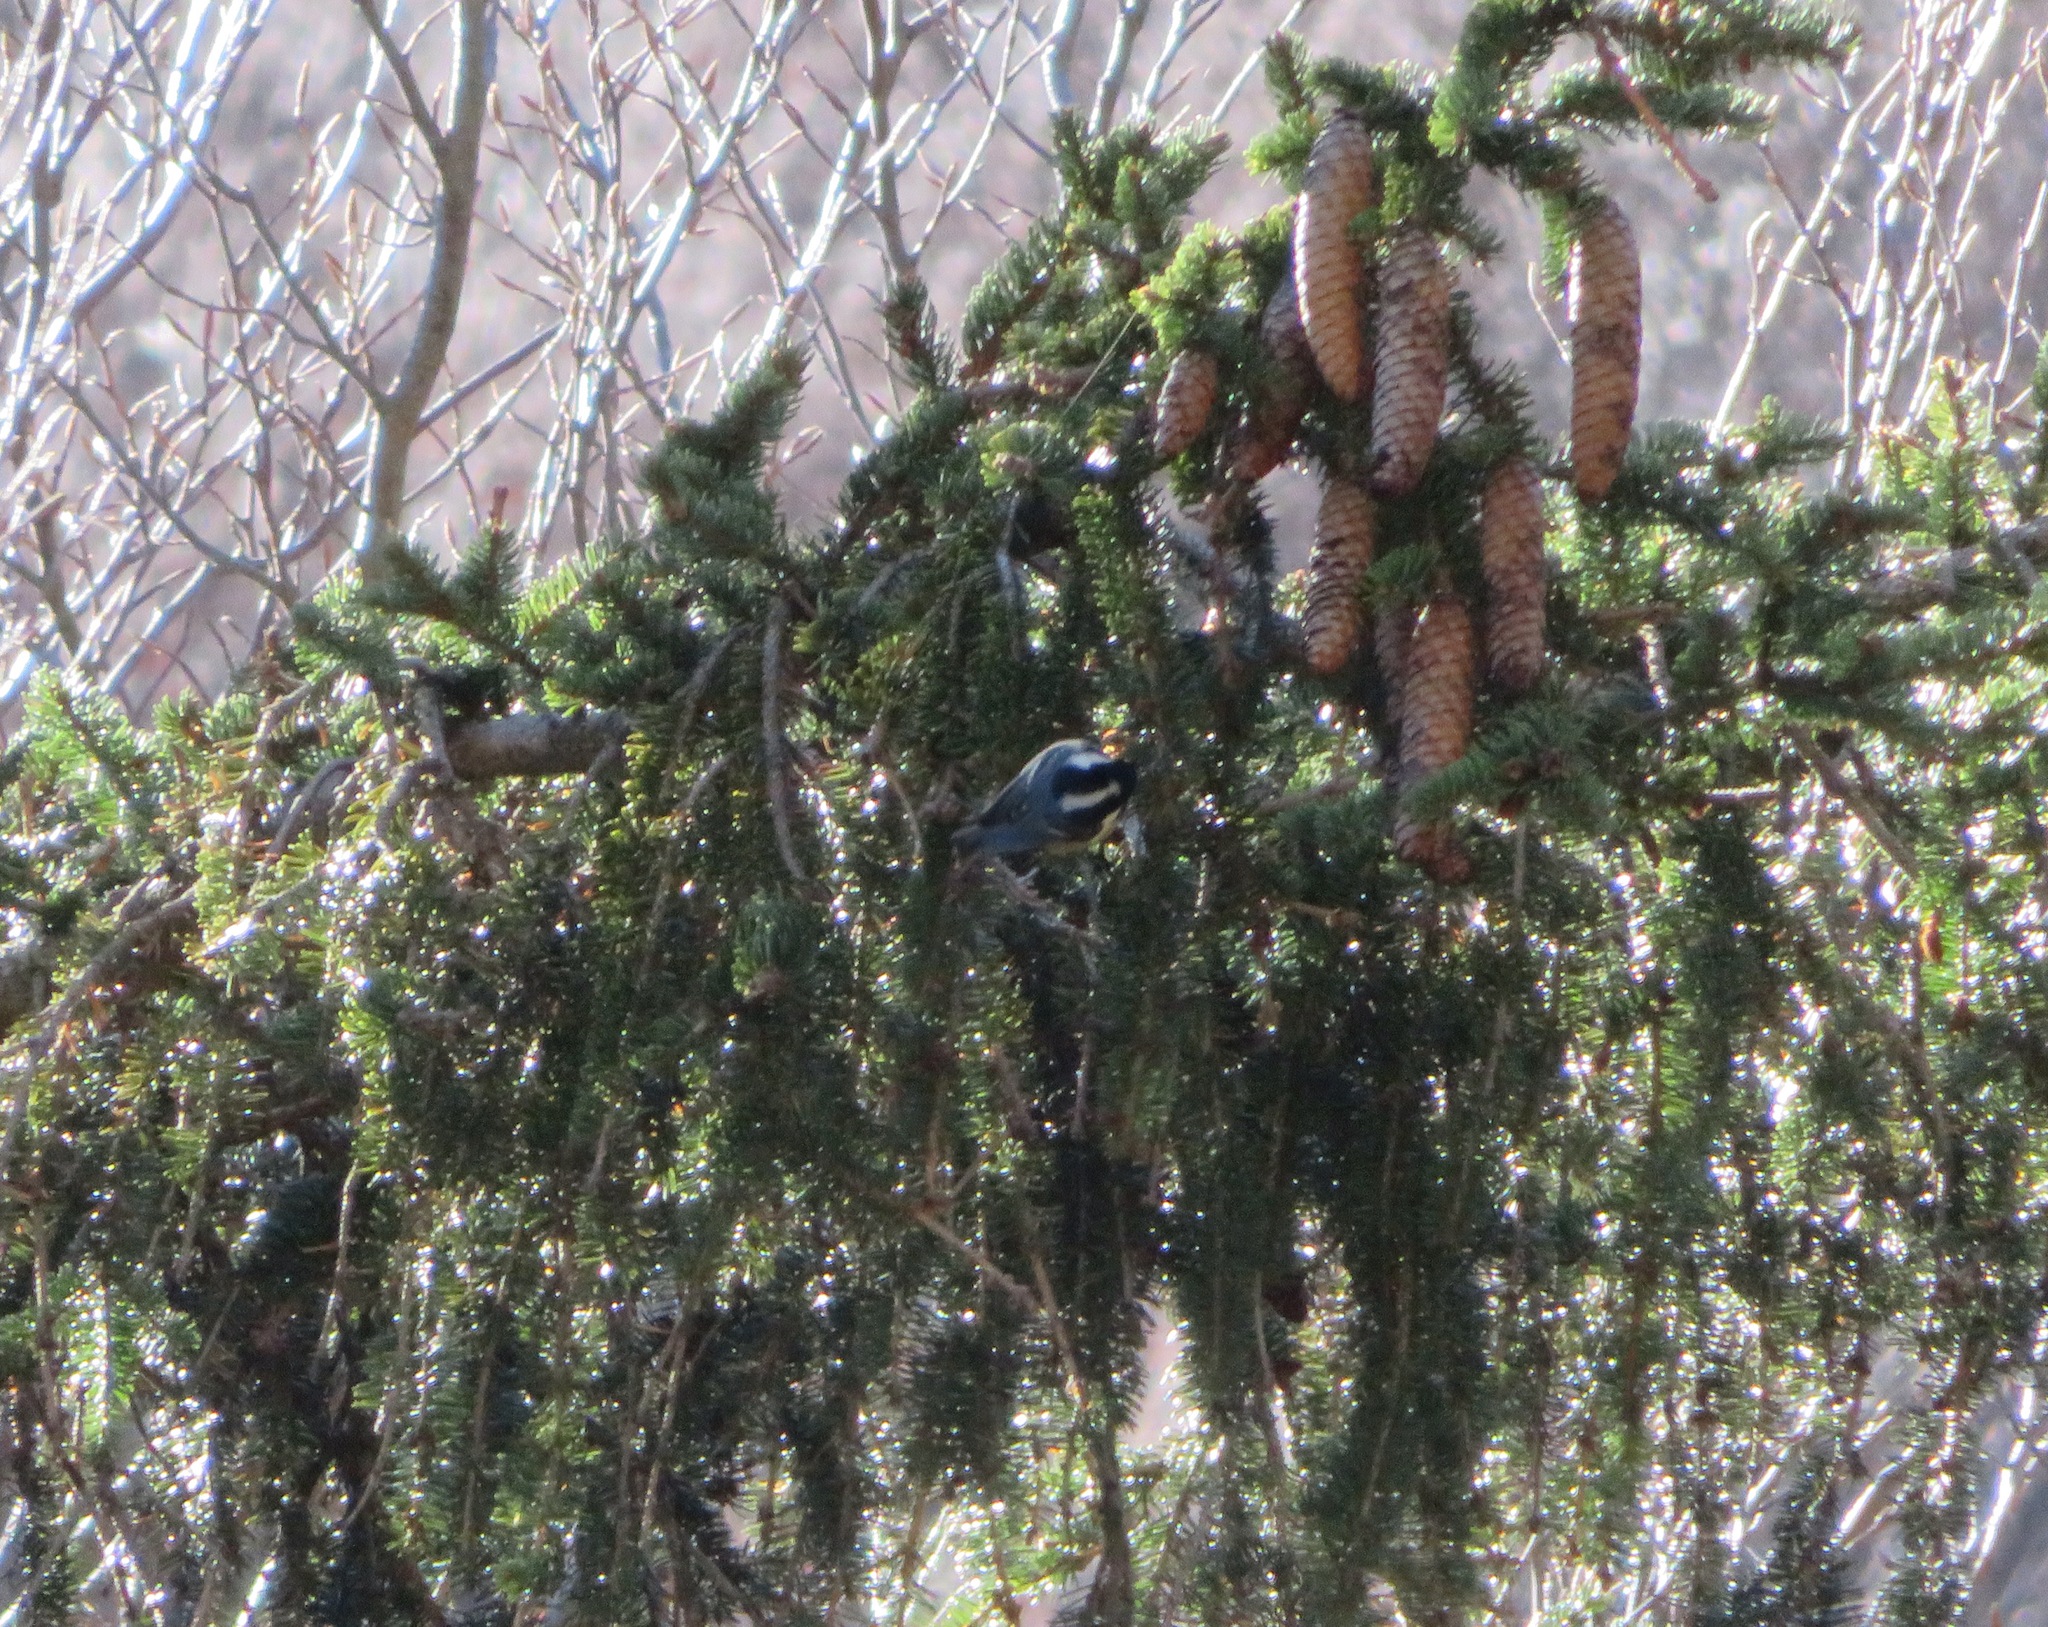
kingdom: Animalia
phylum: Chordata
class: Aves
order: Passeriformes
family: Paridae
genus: Periparus
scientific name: Periparus ater
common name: Coal tit
